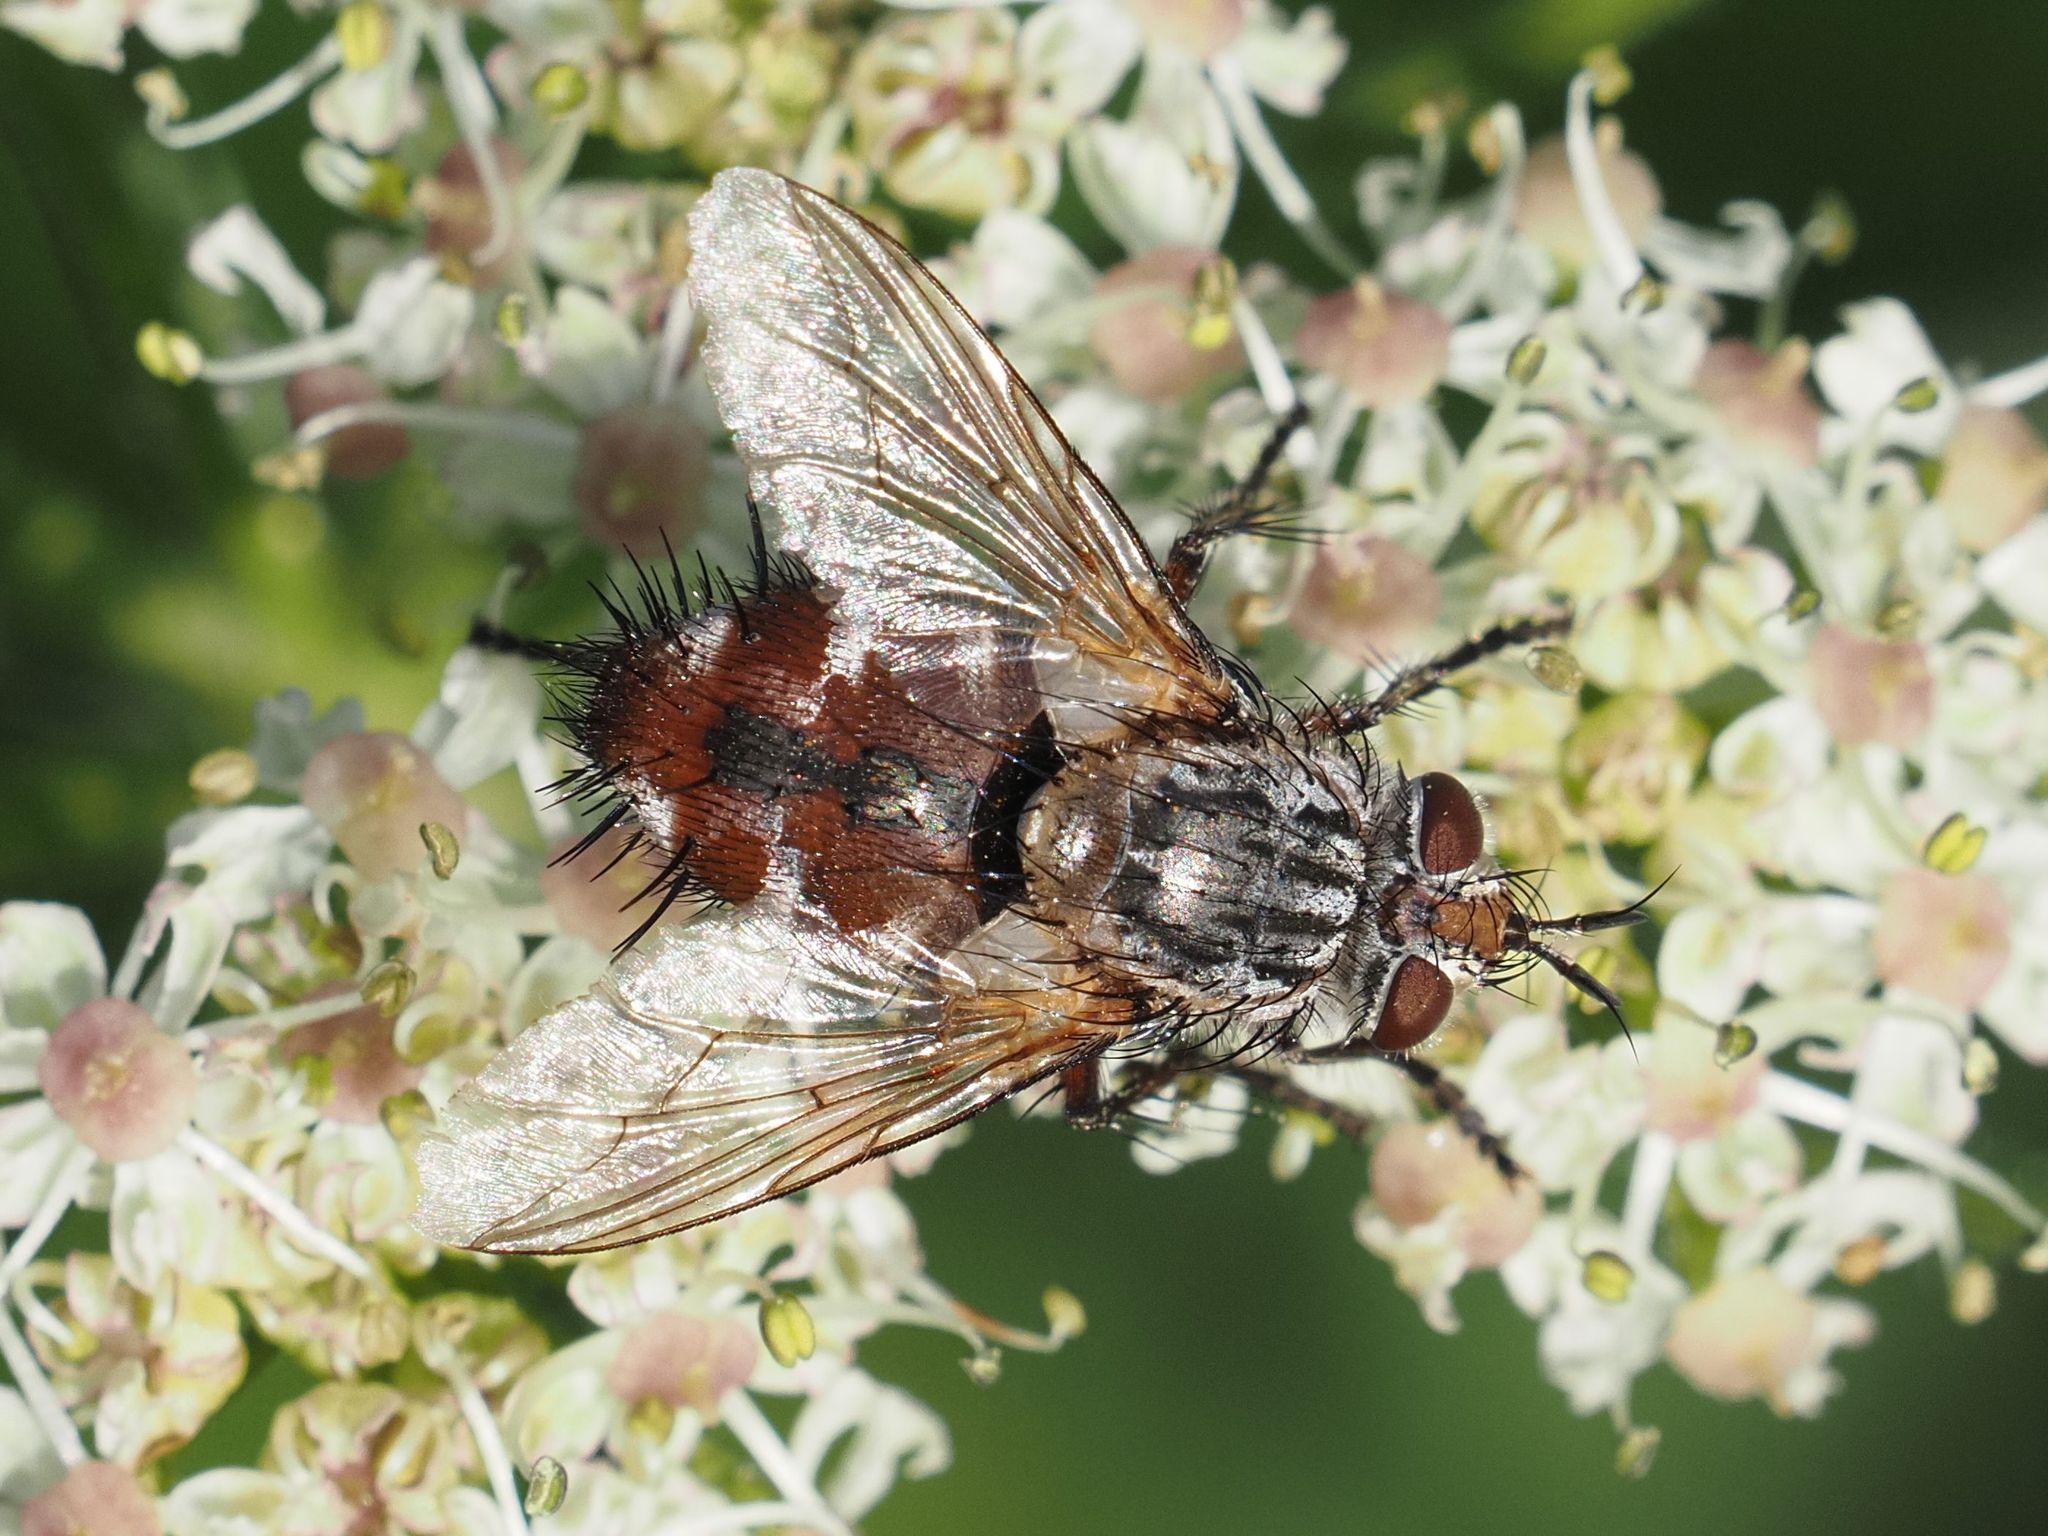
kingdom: Animalia
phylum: Arthropoda
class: Insecta
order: Diptera
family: Tachinidae
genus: Linnaemya
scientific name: Linnaemya vulpina
